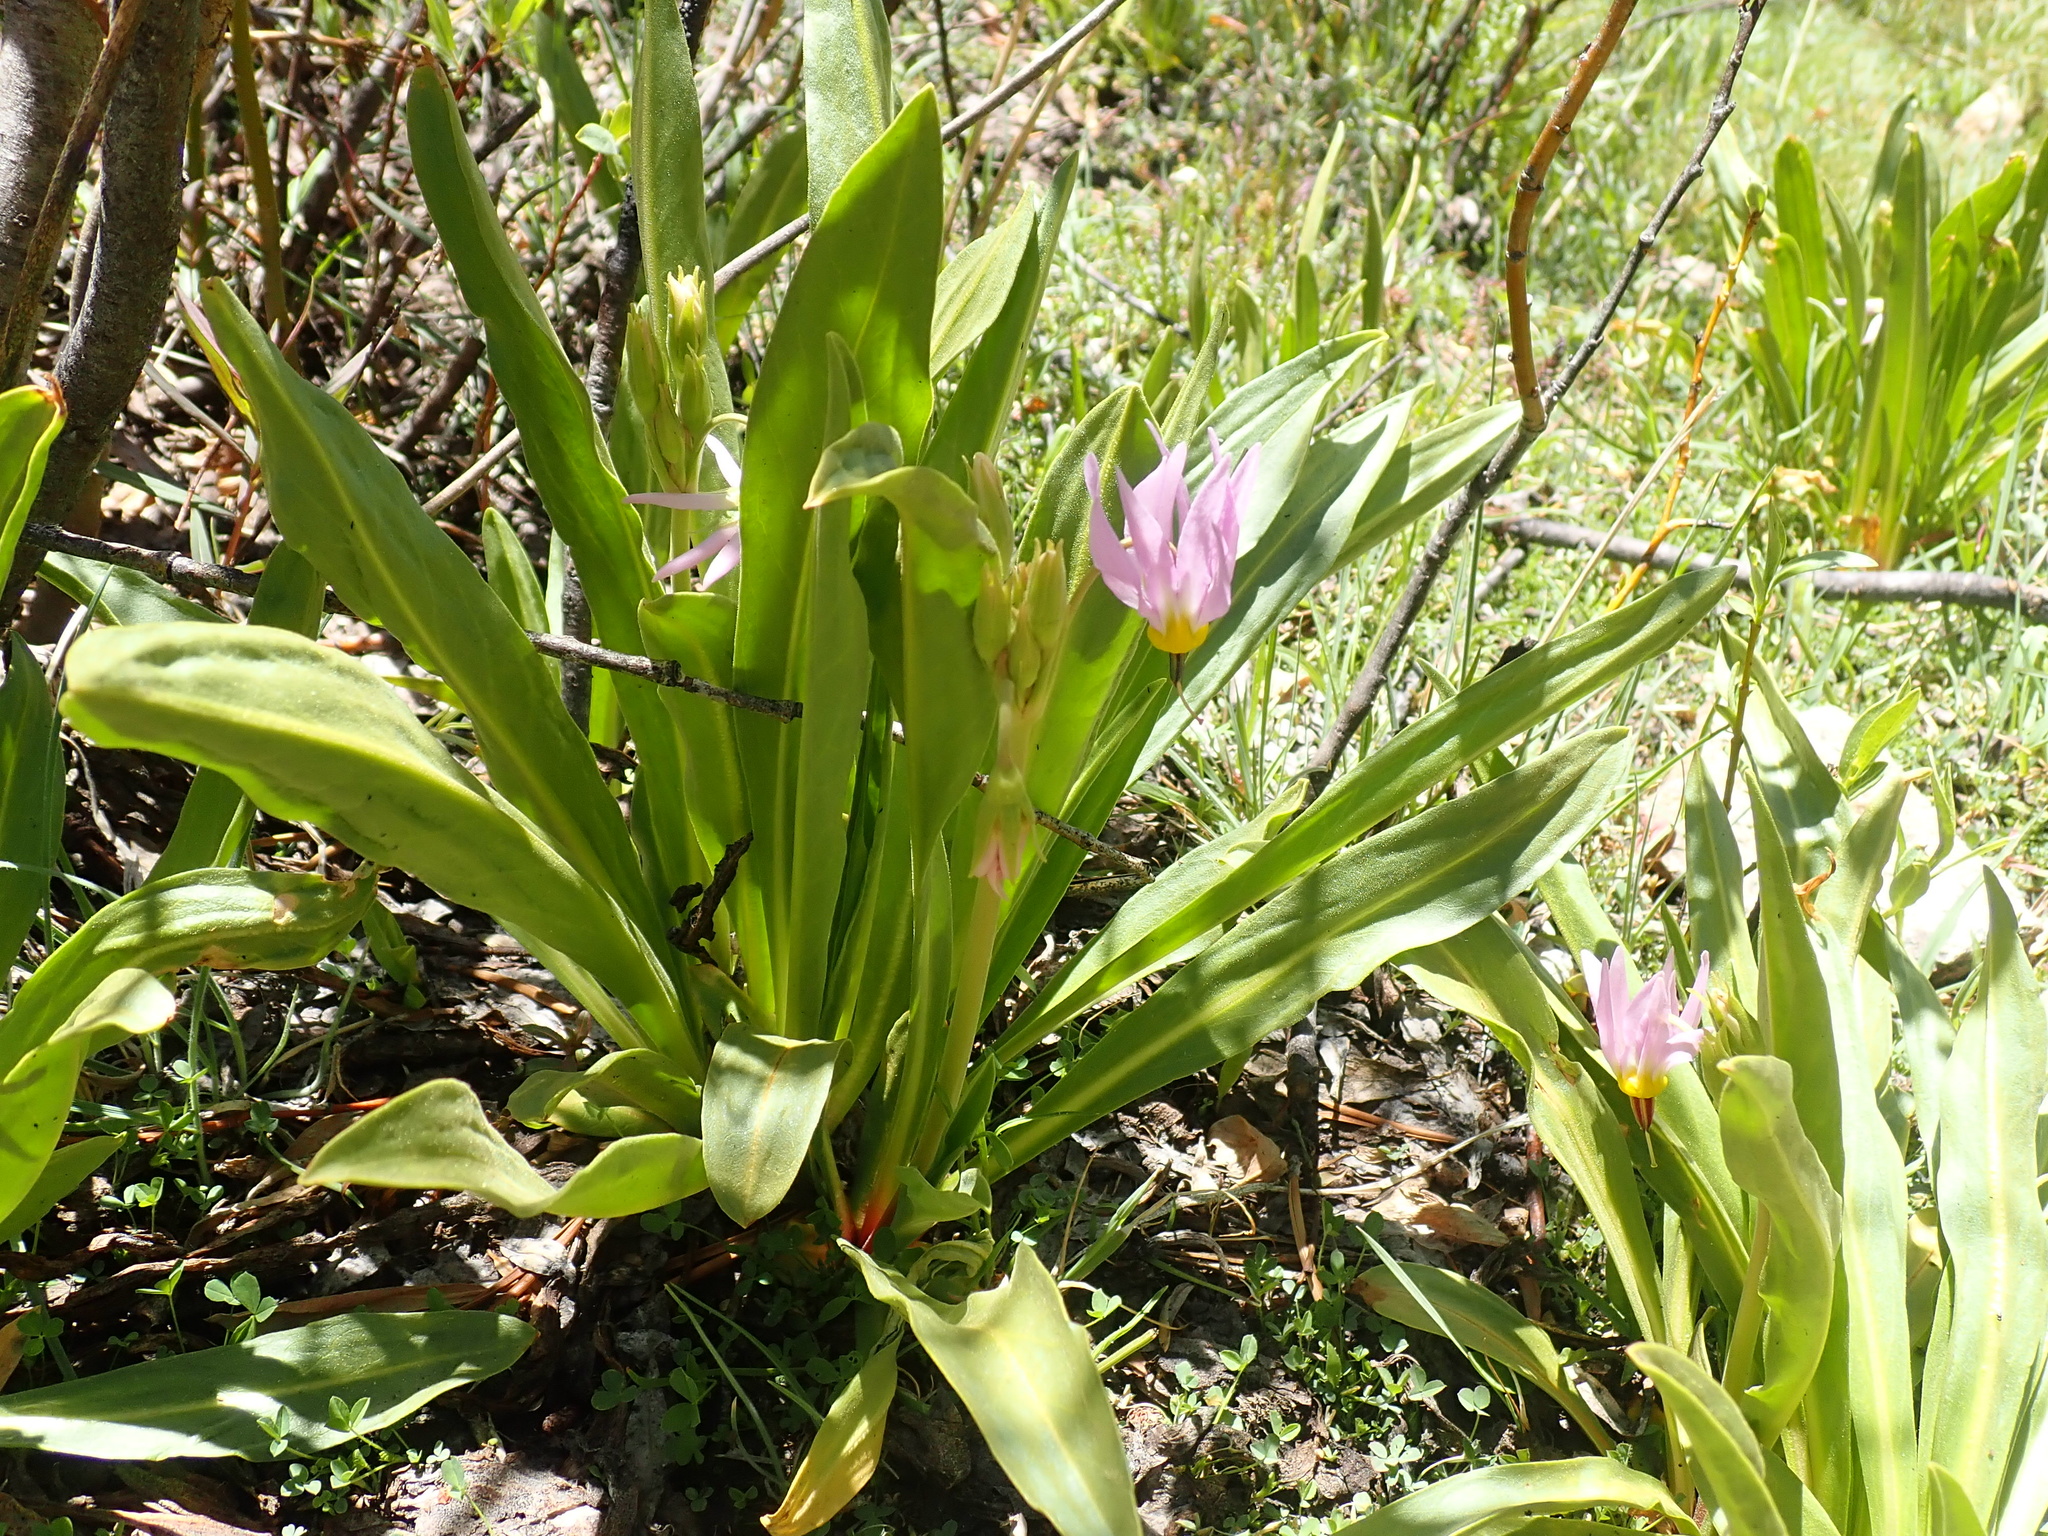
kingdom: Plantae
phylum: Tracheophyta
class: Magnoliopsida
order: Ericales
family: Primulaceae
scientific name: Primulaceae
